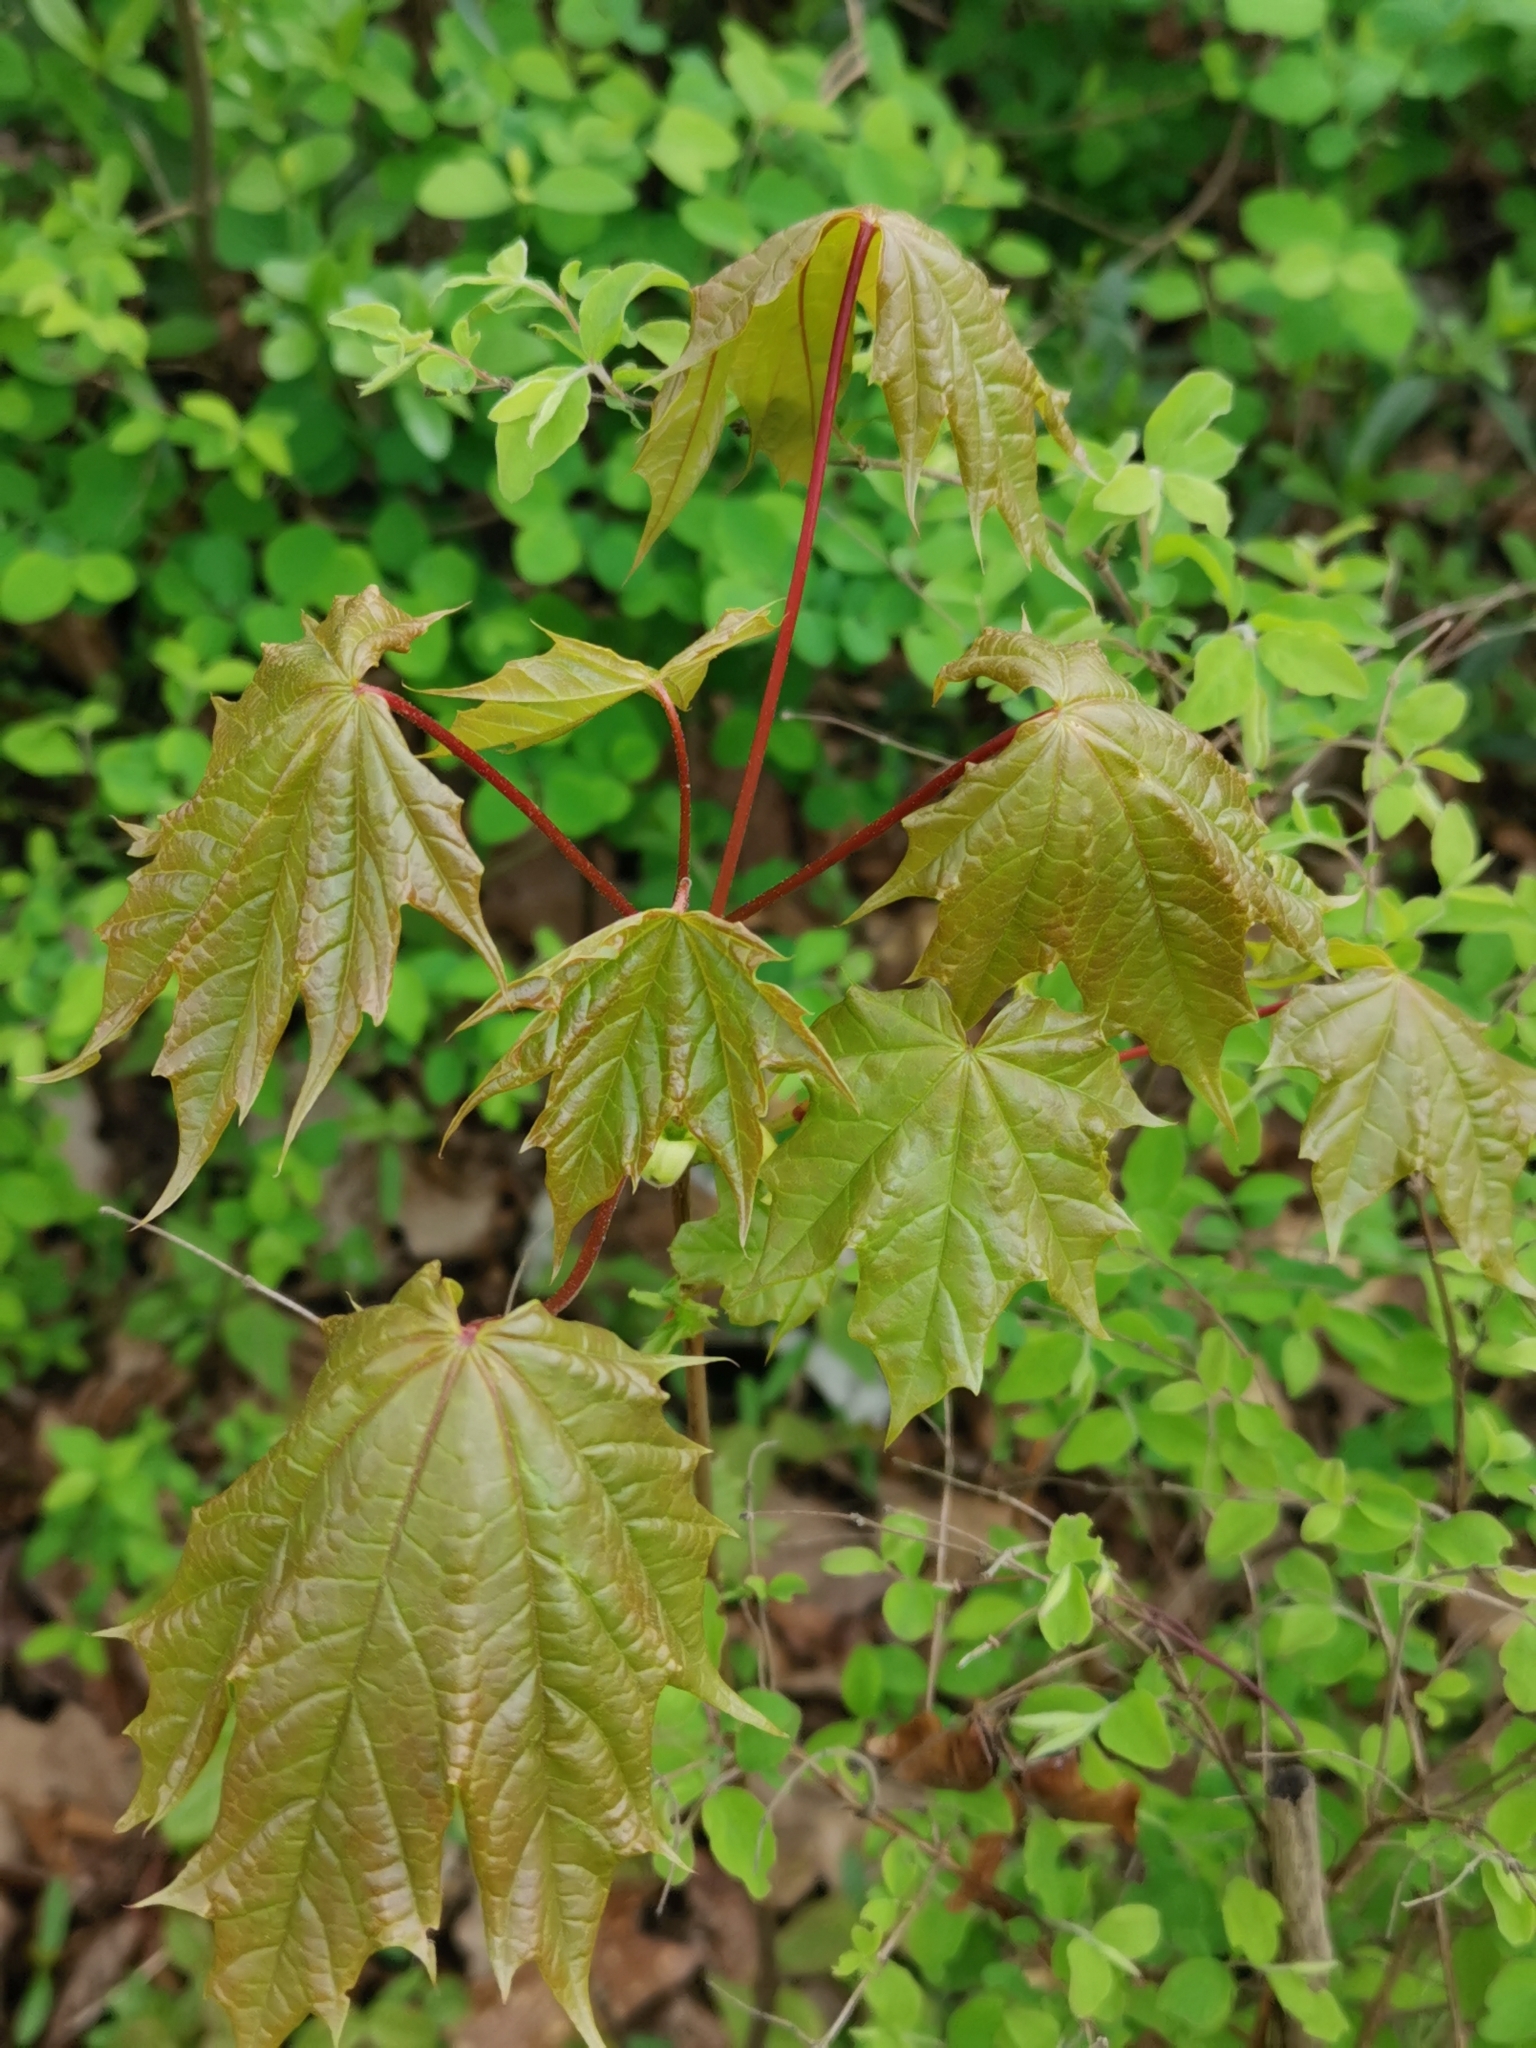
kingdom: Plantae
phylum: Tracheophyta
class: Magnoliopsida
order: Sapindales
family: Sapindaceae
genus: Acer
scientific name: Acer platanoides
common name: Norway maple
